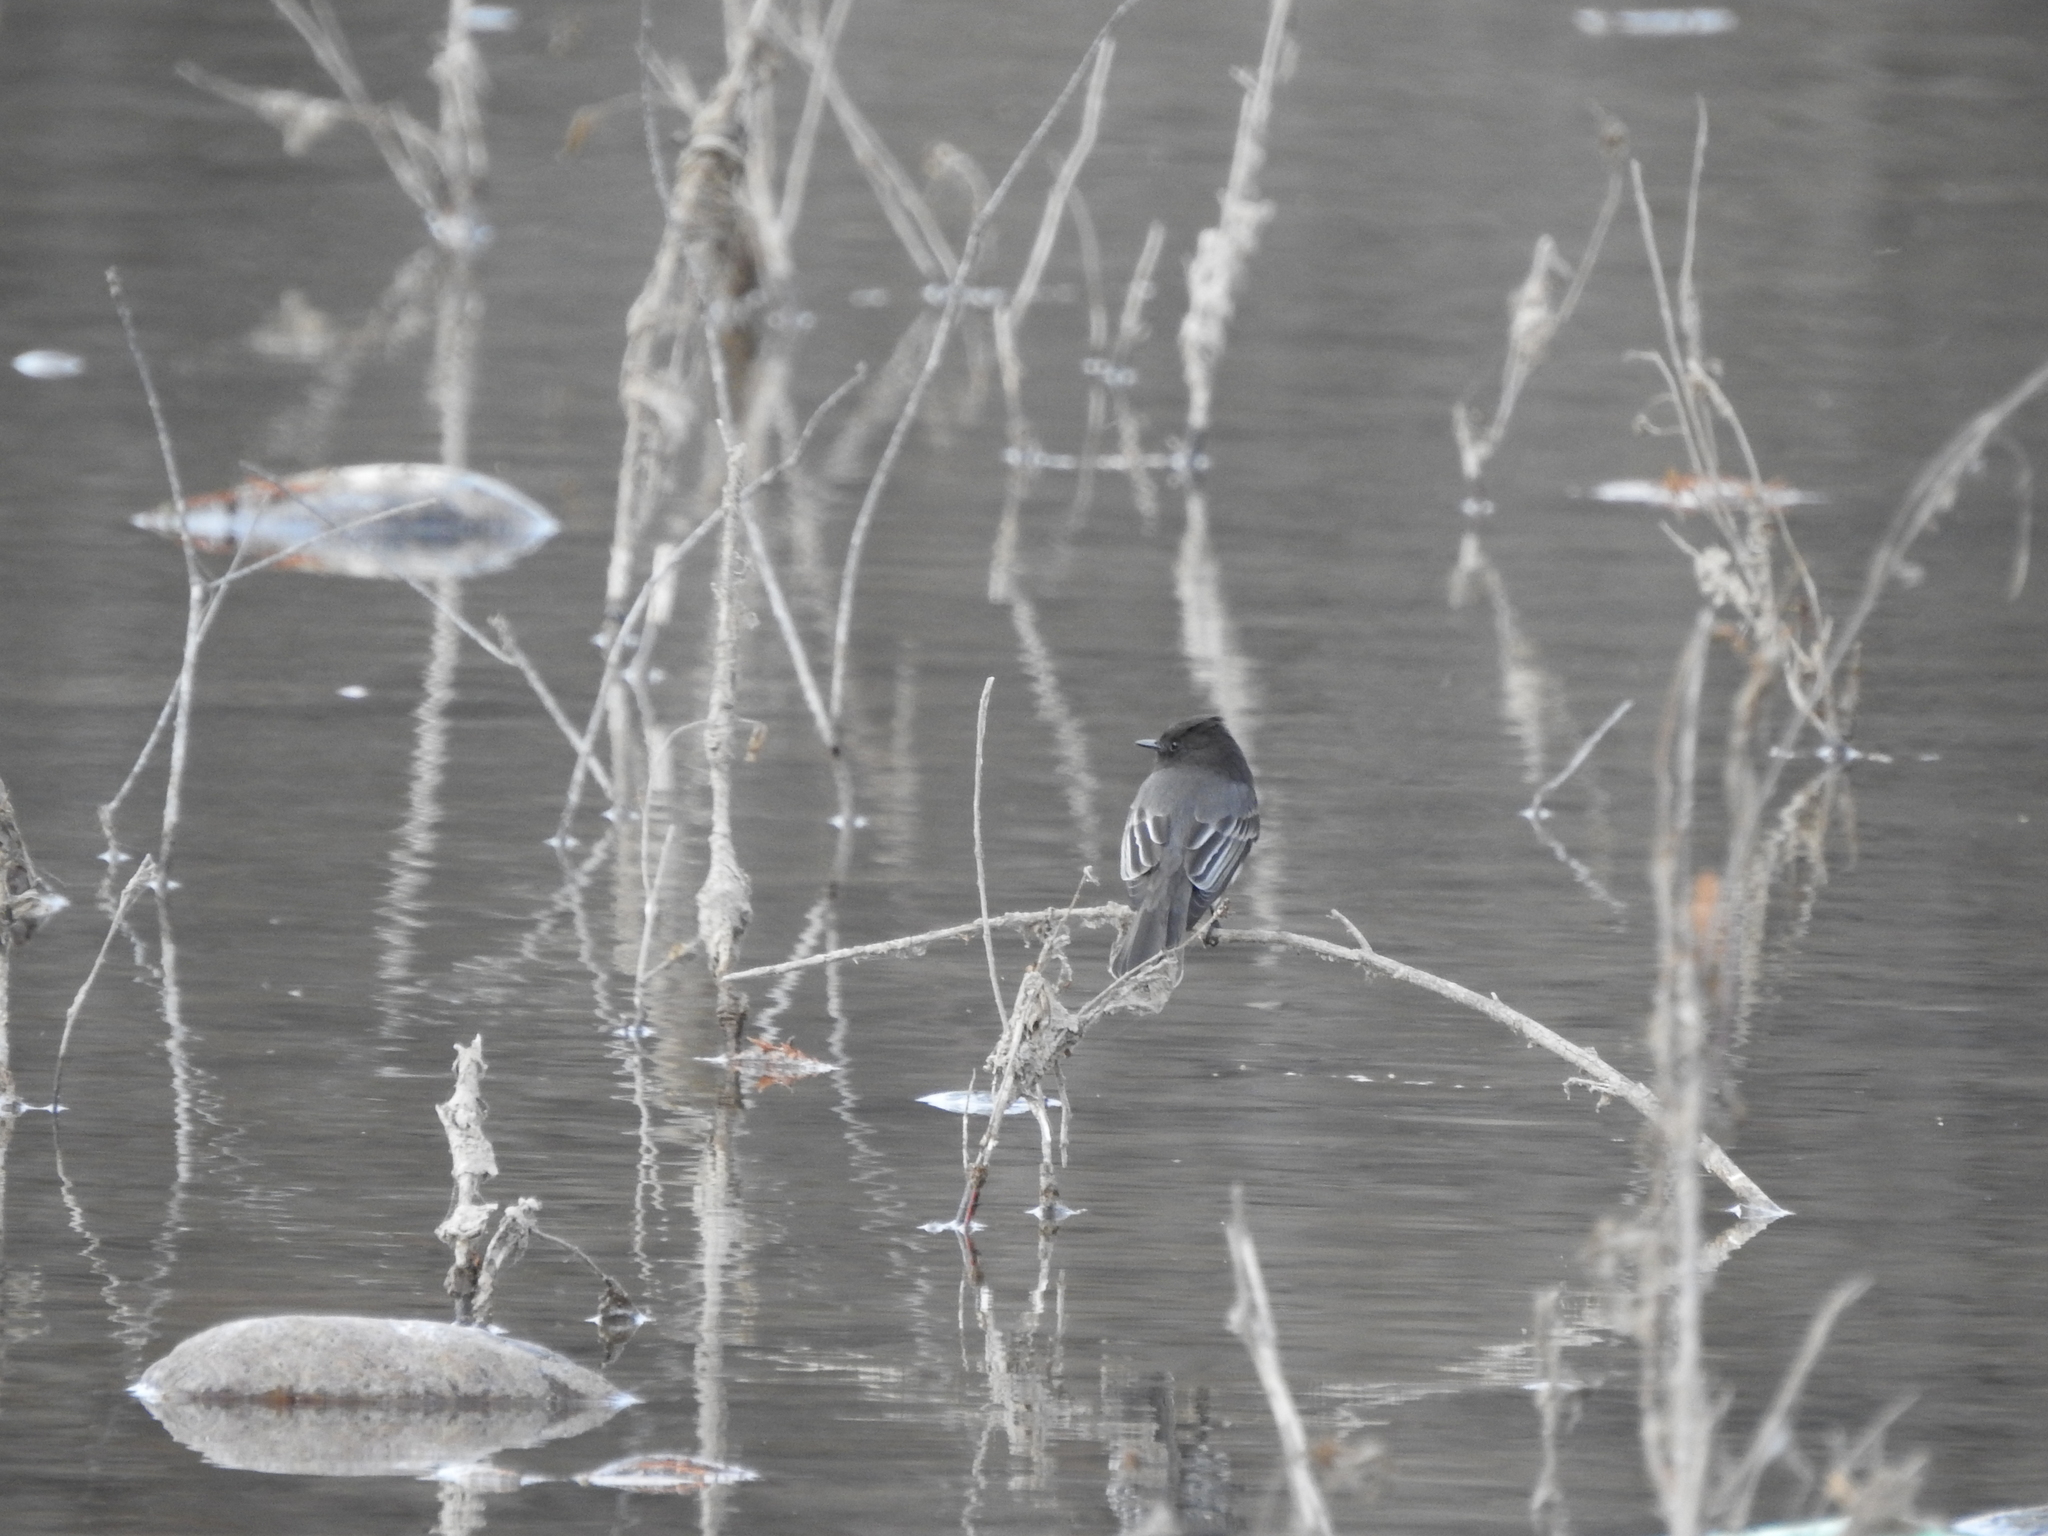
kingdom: Animalia
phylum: Chordata
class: Aves
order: Passeriformes
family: Tyrannidae
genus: Sayornis
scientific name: Sayornis nigricans
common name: Black phoebe
